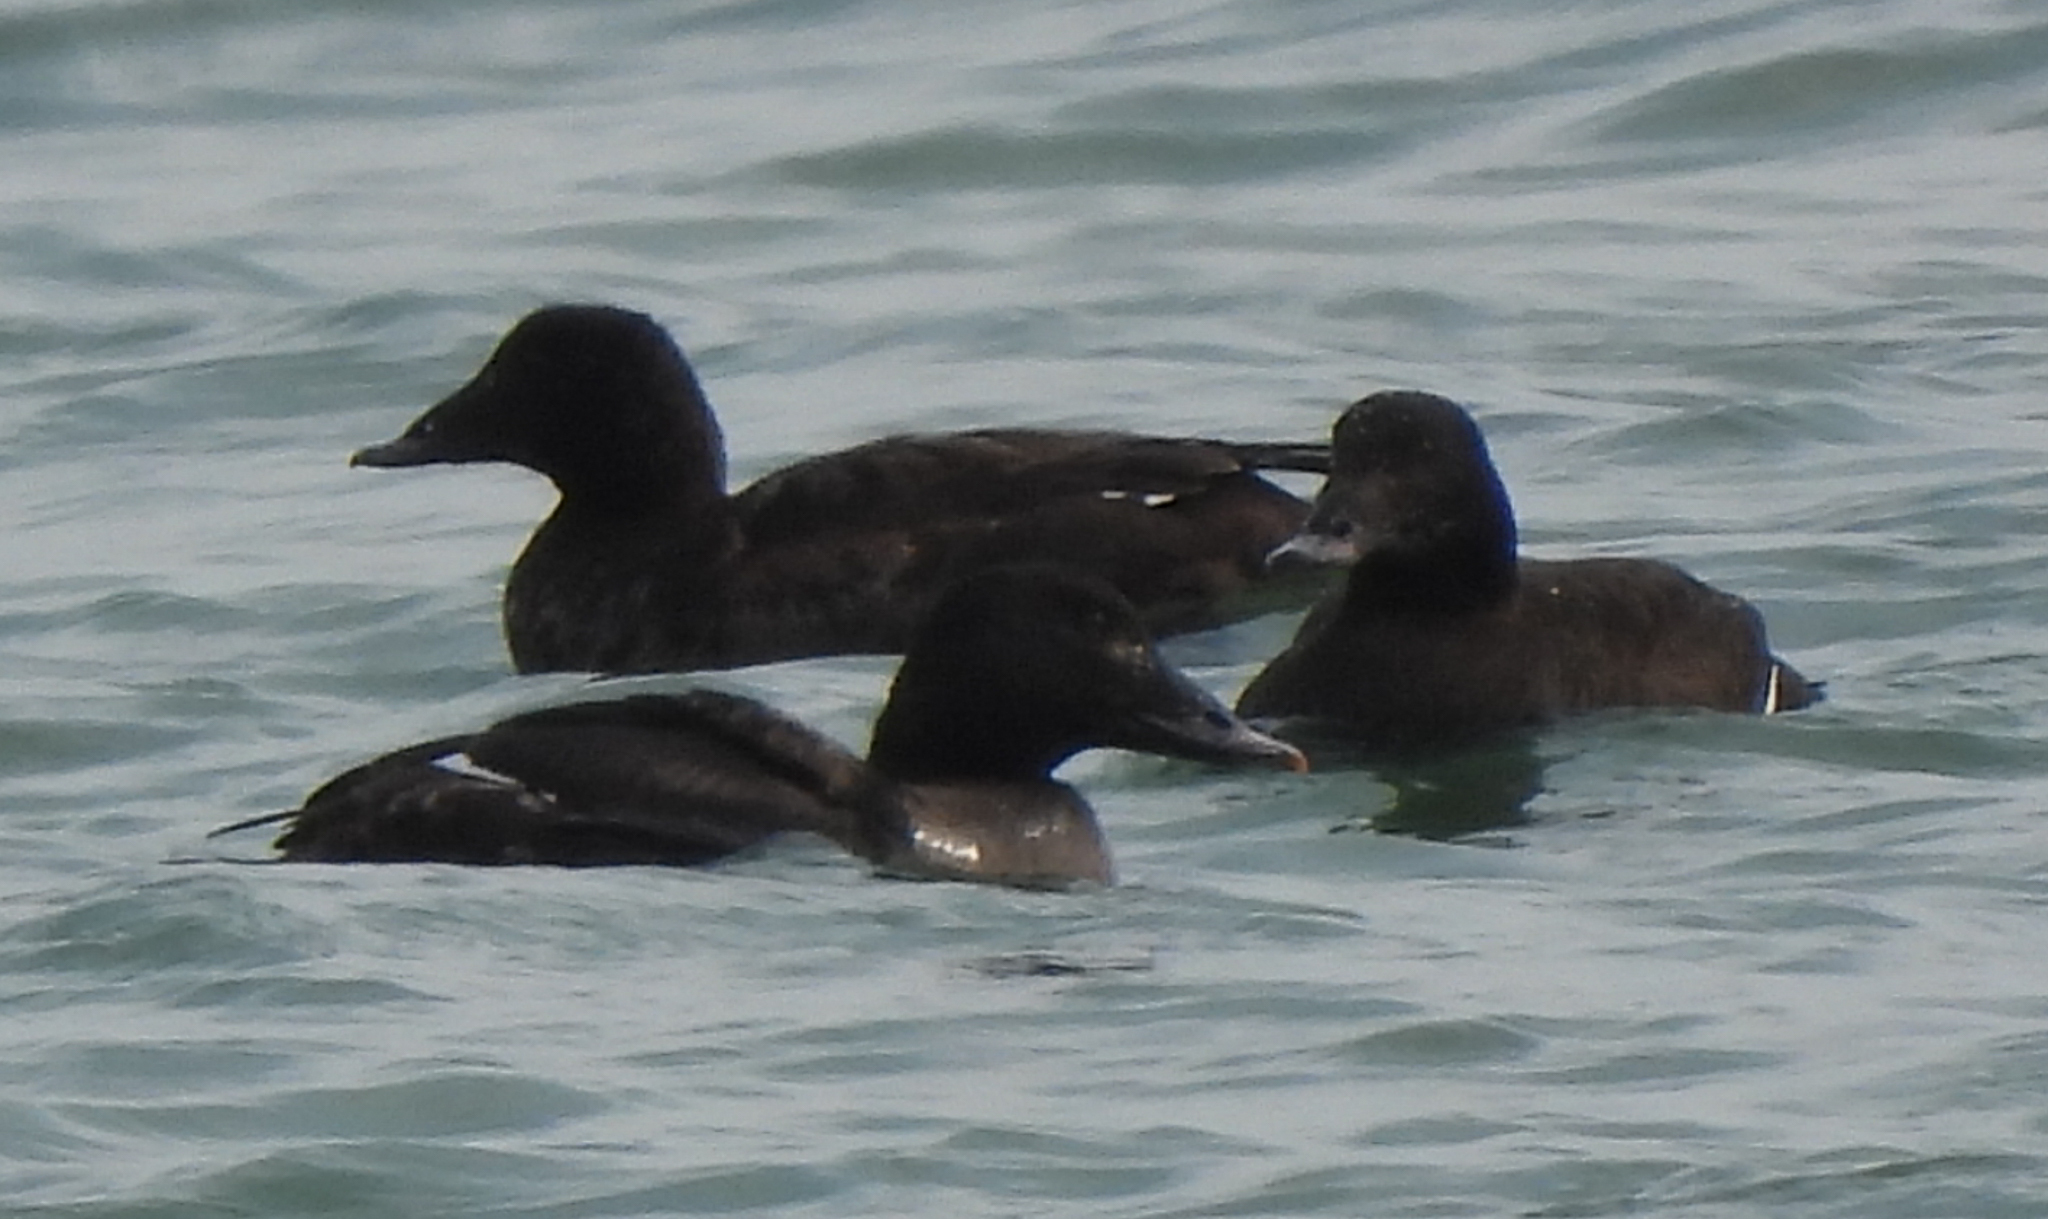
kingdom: Animalia
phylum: Chordata
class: Aves
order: Anseriformes
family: Anatidae
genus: Melanitta
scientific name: Melanitta deglandi
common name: White-winged scoter
